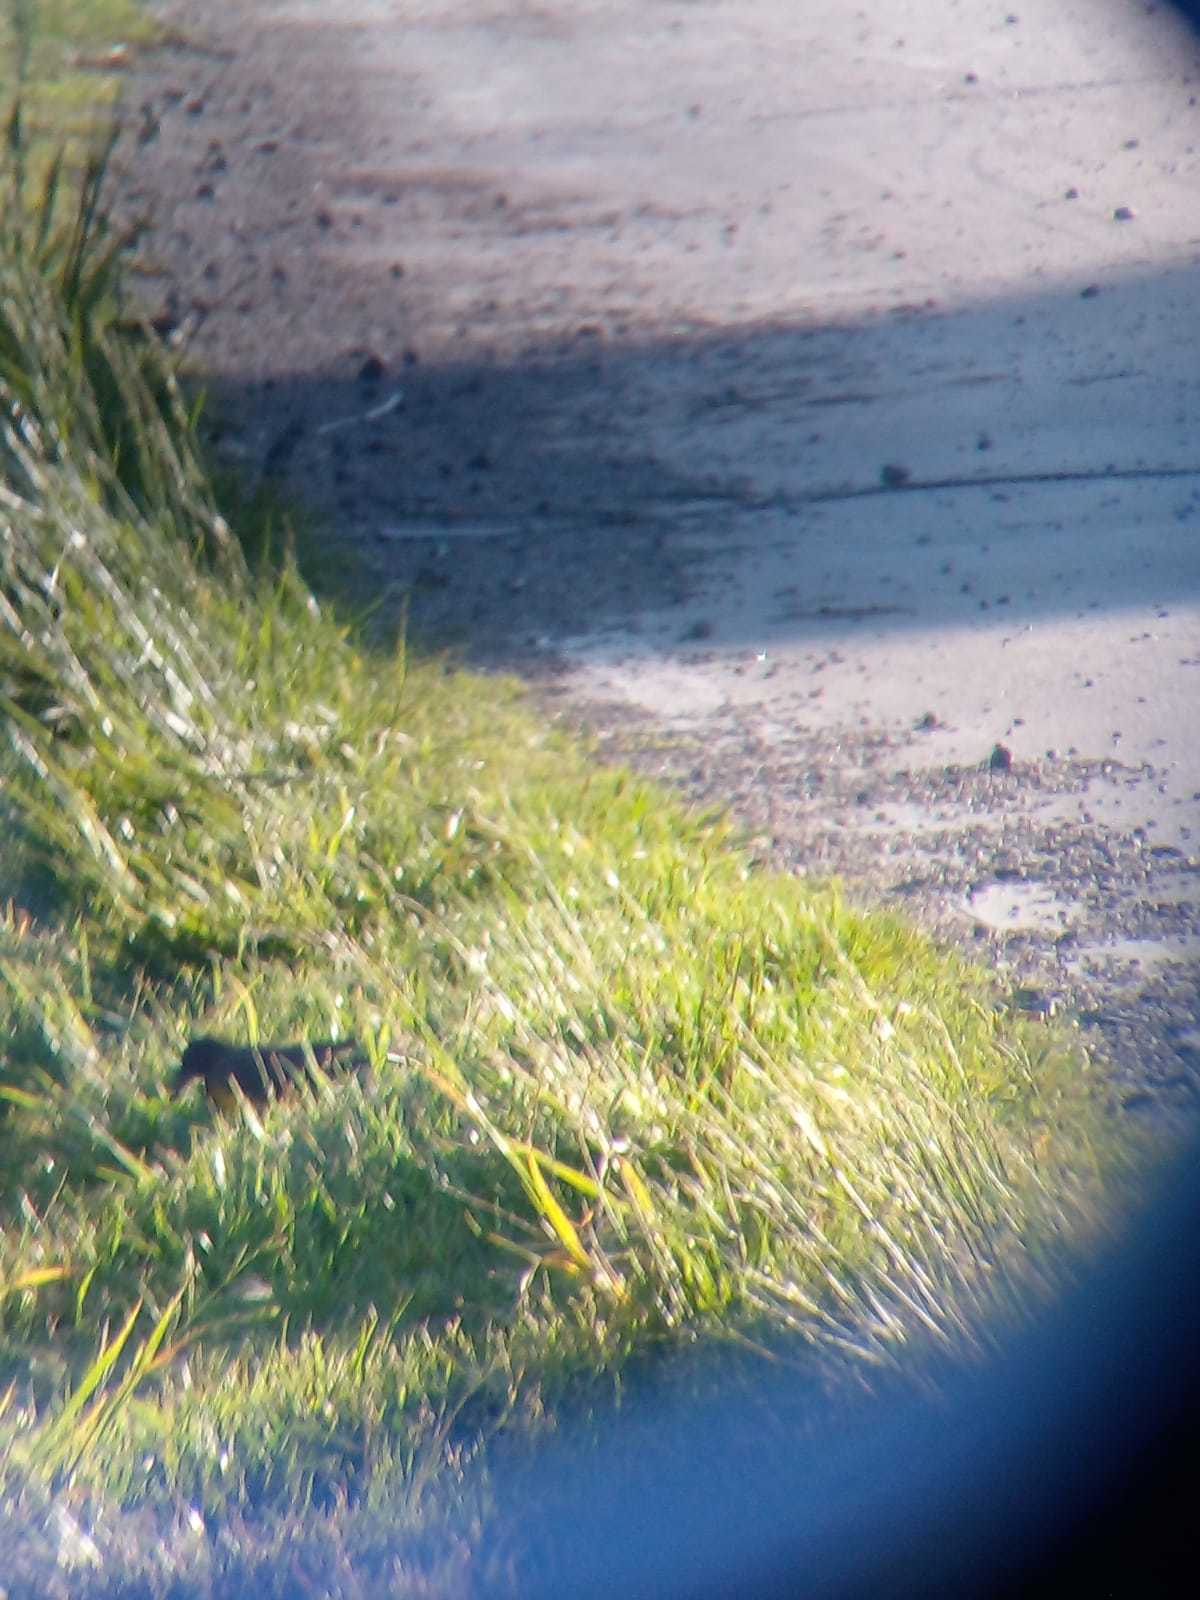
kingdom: Animalia
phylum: Chordata
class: Aves
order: Passeriformes
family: Icteridae
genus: Pseudoleistes
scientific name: Pseudoleistes virescens
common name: Brown-and-yellow marshbird
